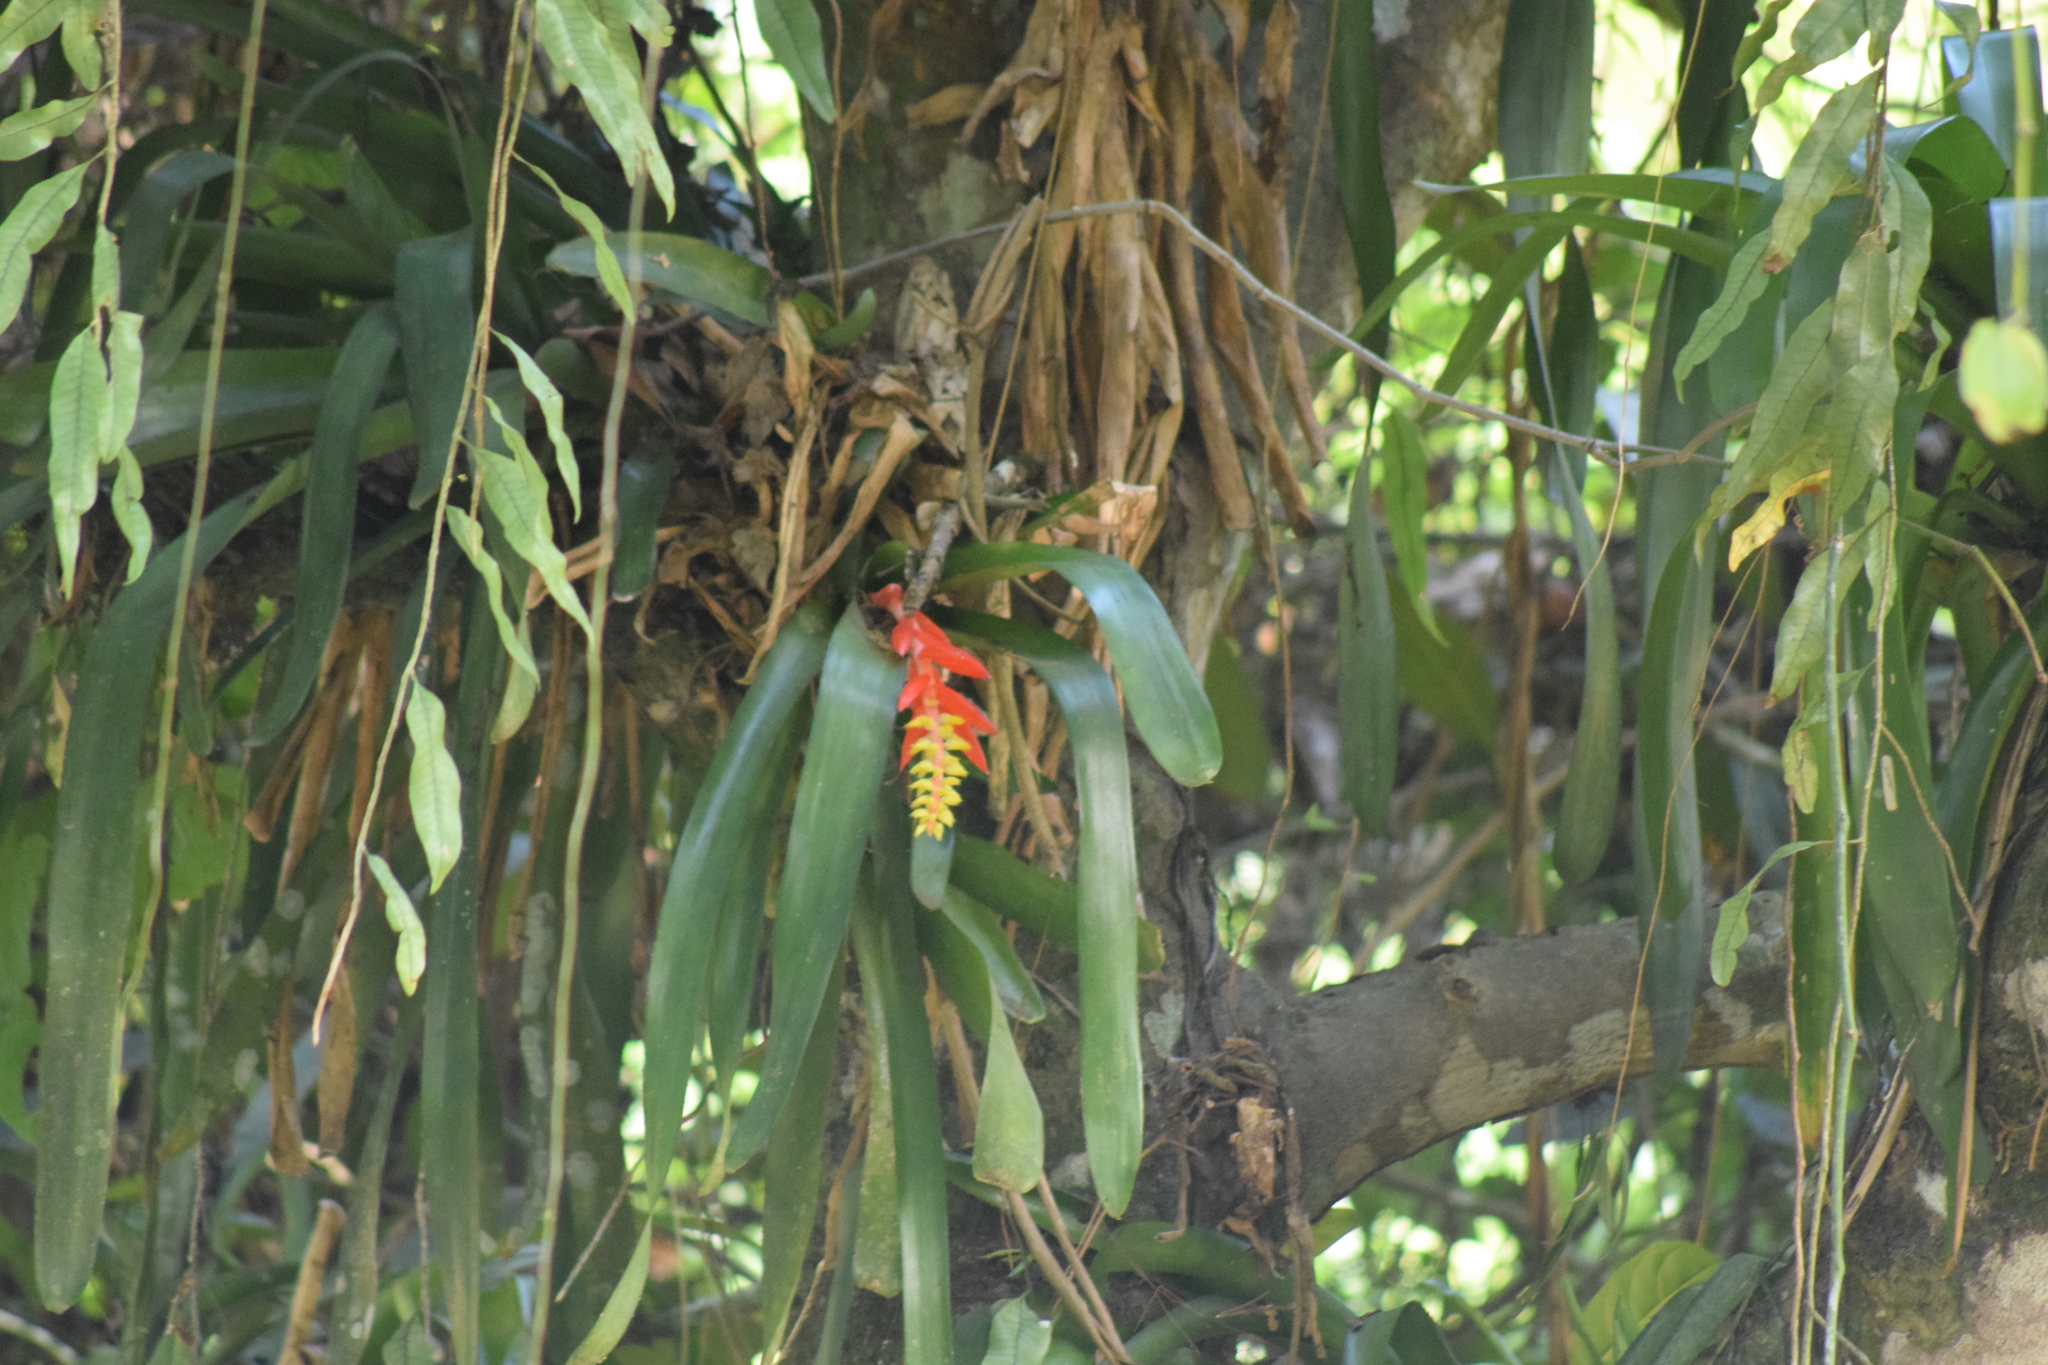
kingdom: Plantae
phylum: Tracheophyta
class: Liliopsida
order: Poales
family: Bromeliaceae
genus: Aechmea
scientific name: Aechmea nudicaulis
